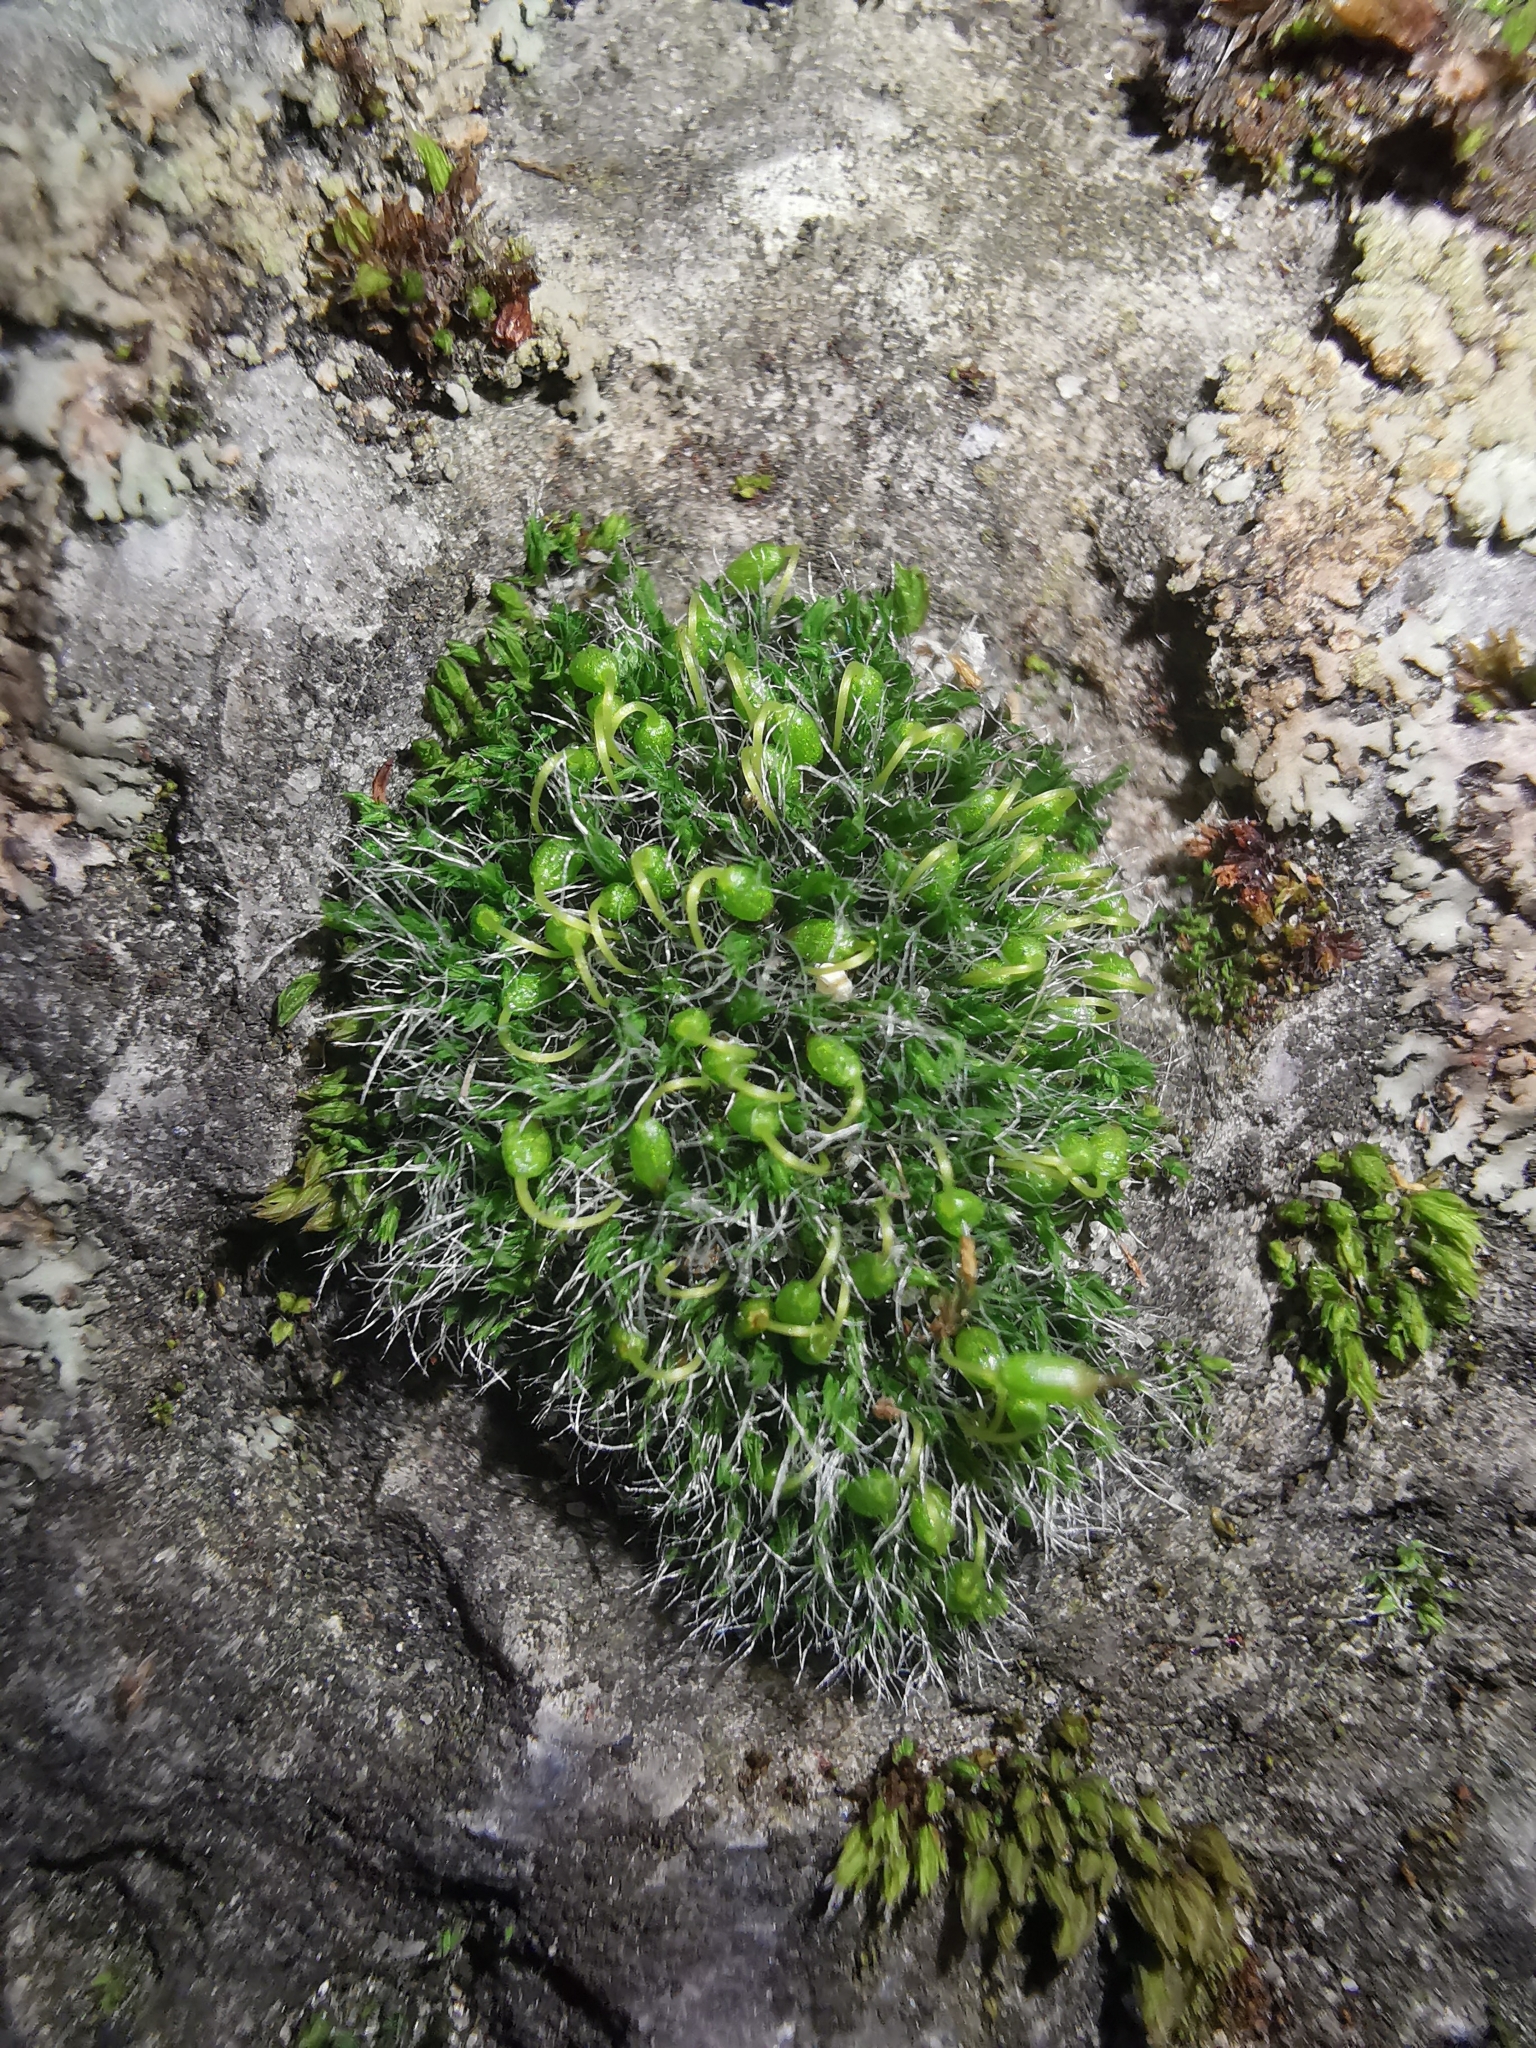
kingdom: Plantae
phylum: Bryophyta
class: Bryopsida
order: Grimmiales
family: Grimmiaceae
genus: Grimmia
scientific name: Grimmia pulvinata
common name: Grey-cushioned grimmia
